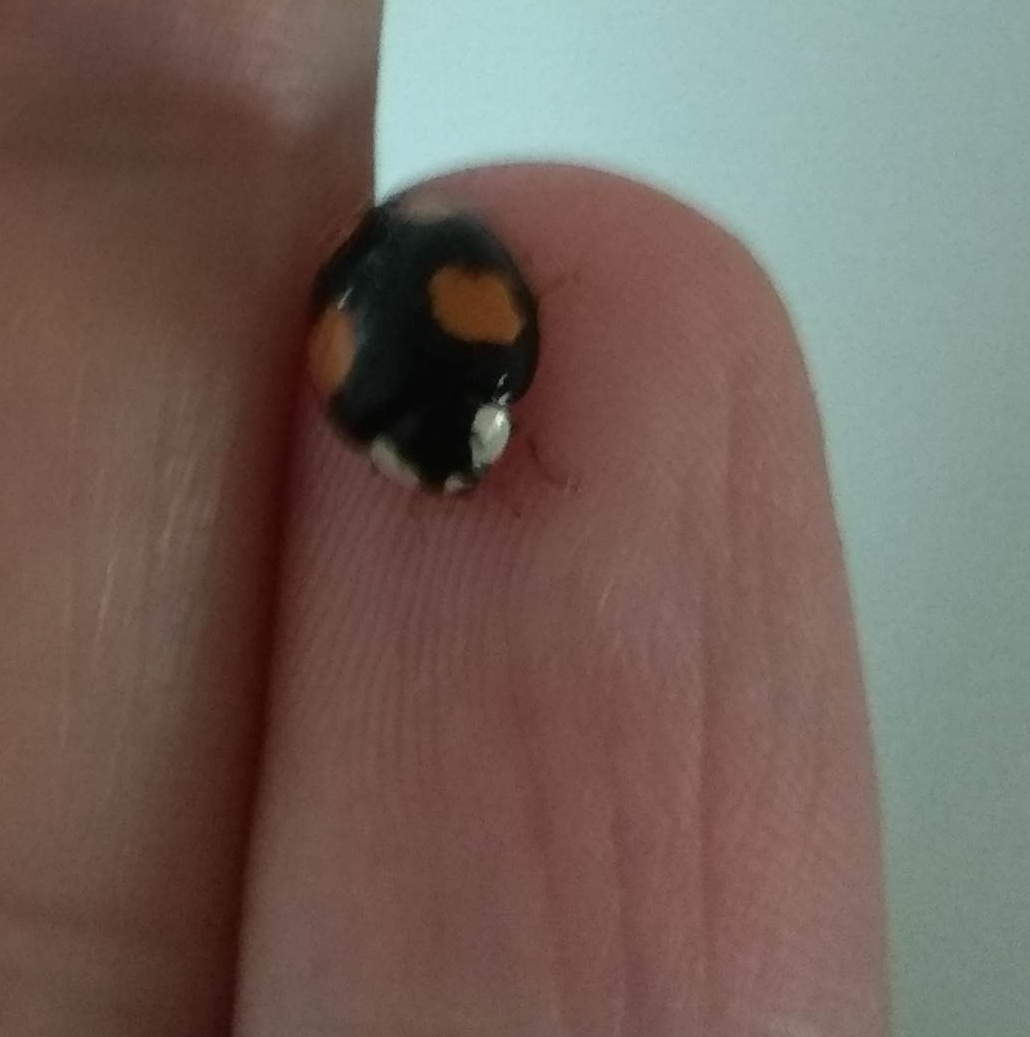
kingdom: Animalia
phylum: Arthropoda
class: Insecta
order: Coleoptera
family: Coccinellidae
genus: Harmonia
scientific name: Harmonia axyridis
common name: Harlequin ladybird
